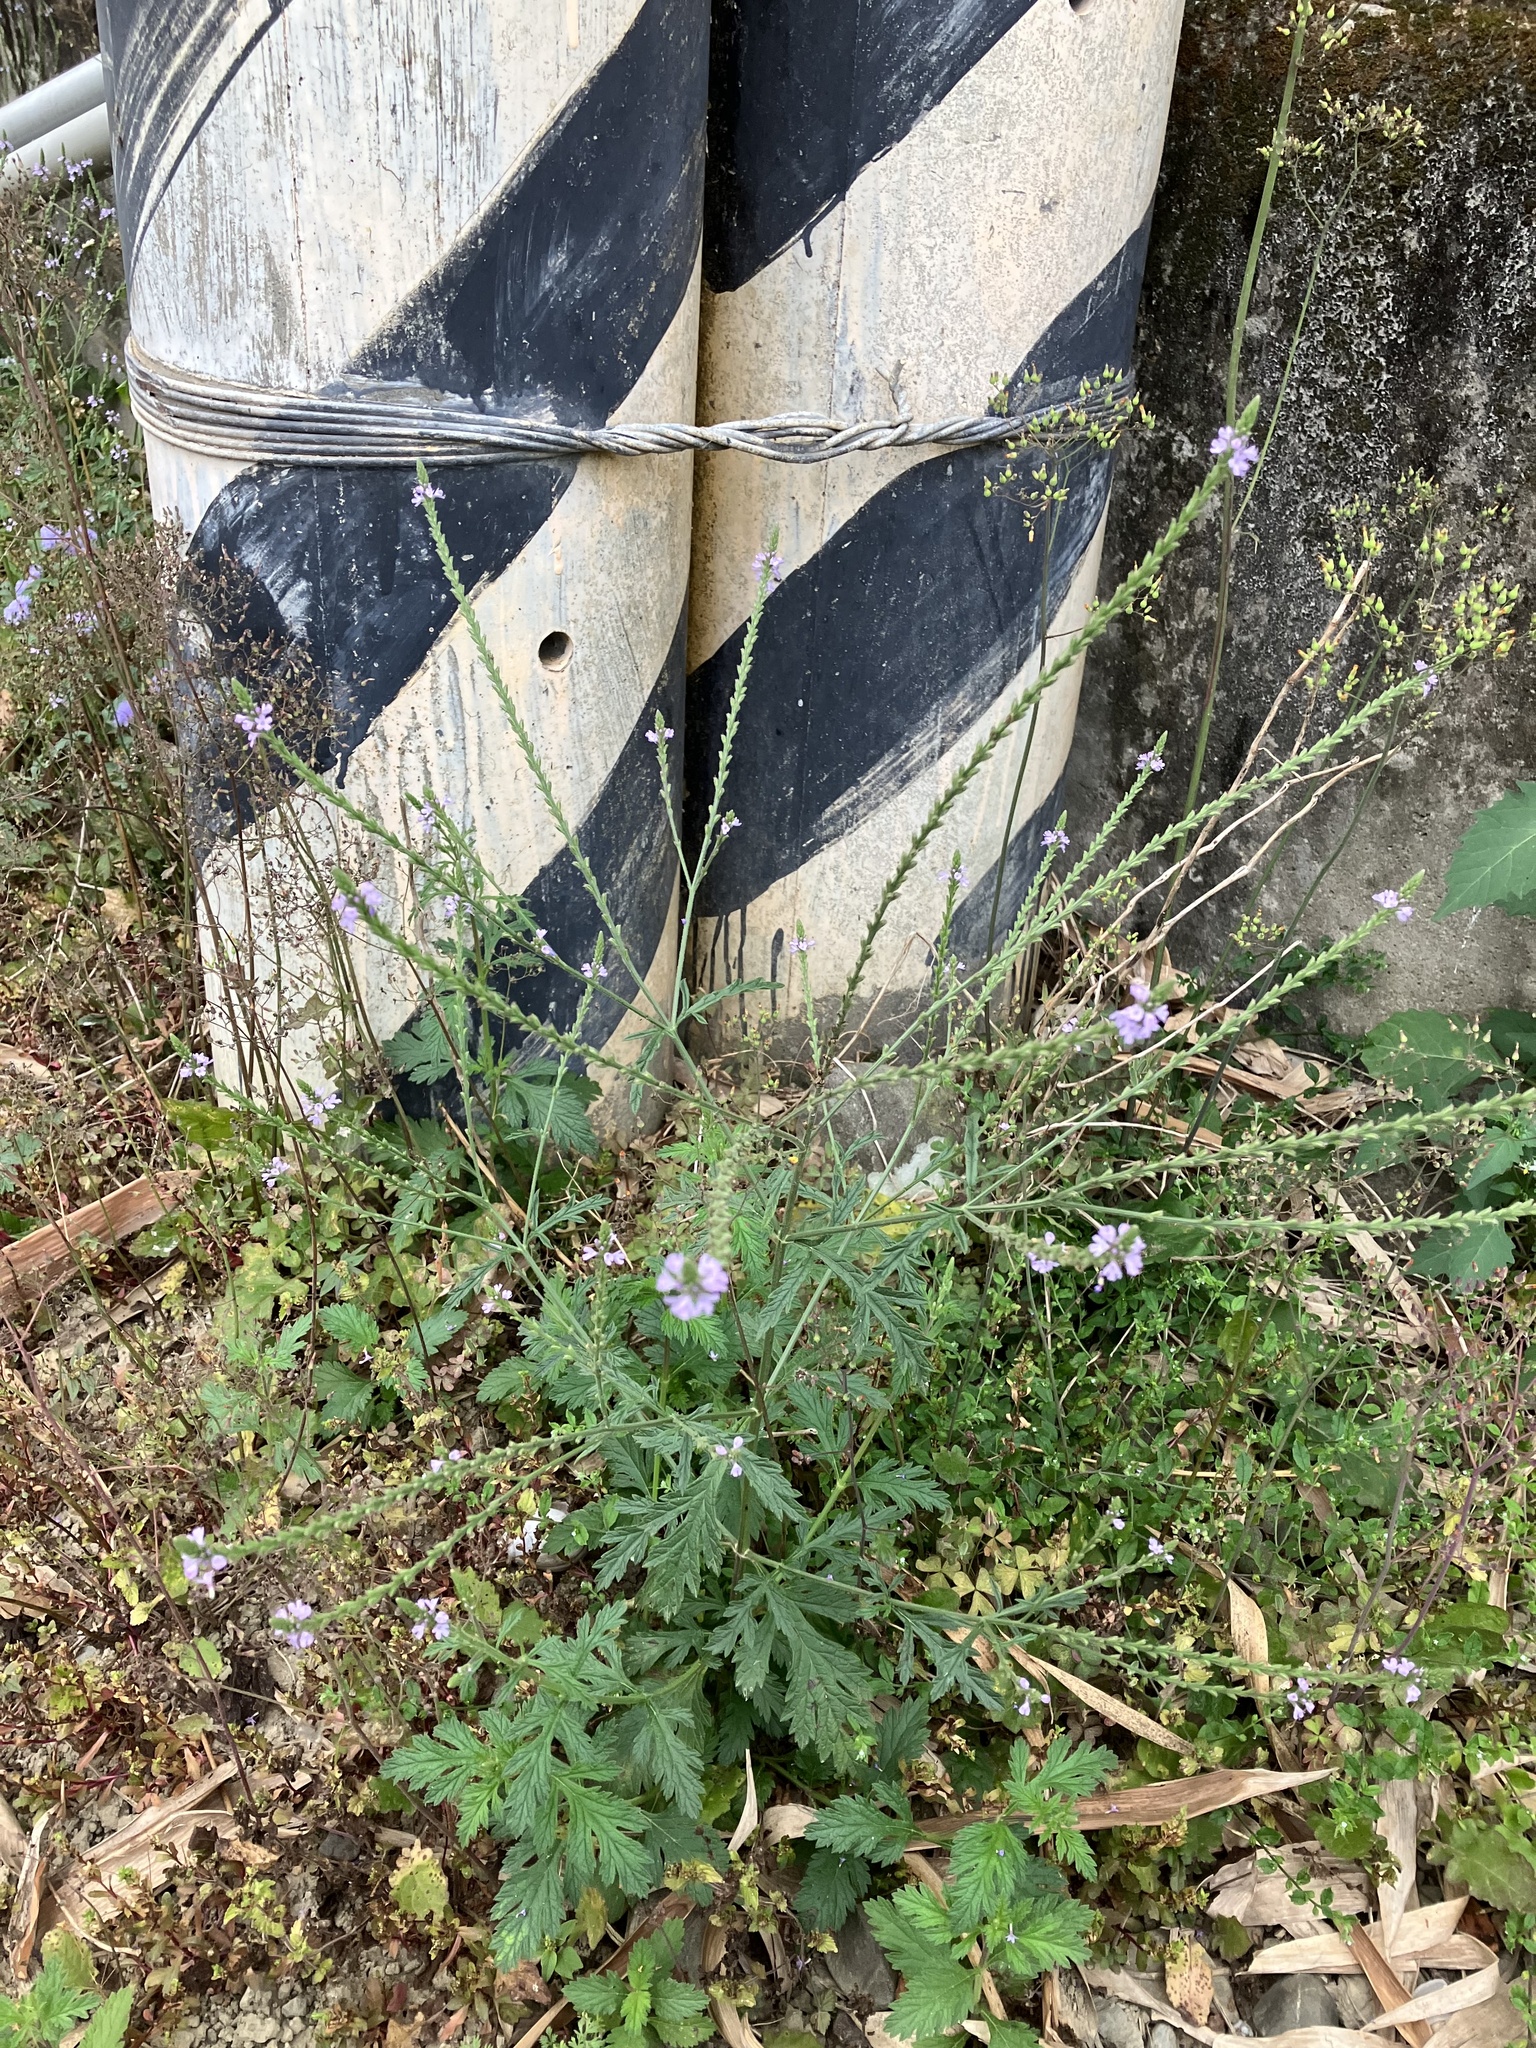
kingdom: Plantae
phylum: Tracheophyta
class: Magnoliopsida
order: Lamiales
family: Verbenaceae
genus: Verbena
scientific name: Verbena officinalis
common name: Vervain
